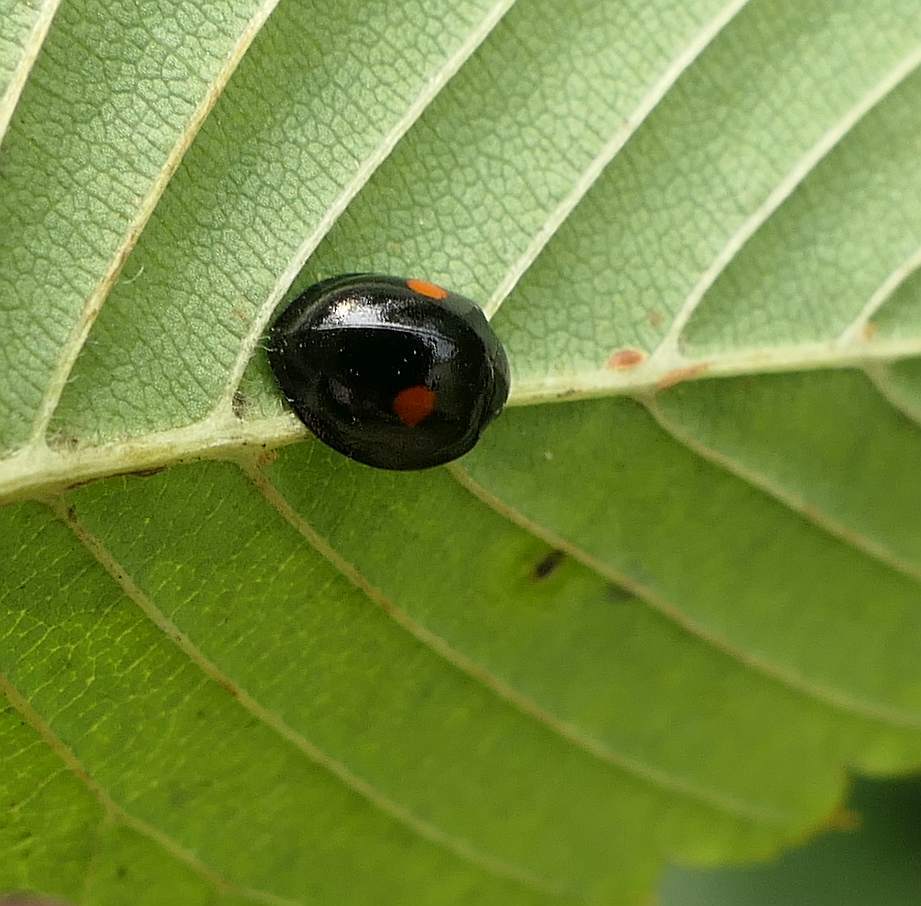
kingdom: Animalia
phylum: Arthropoda
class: Insecta
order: Coleoptera
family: Coccinellidae
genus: Chilocorus
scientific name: Chilocorus stigma
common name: Twicestabbed lady beetle
